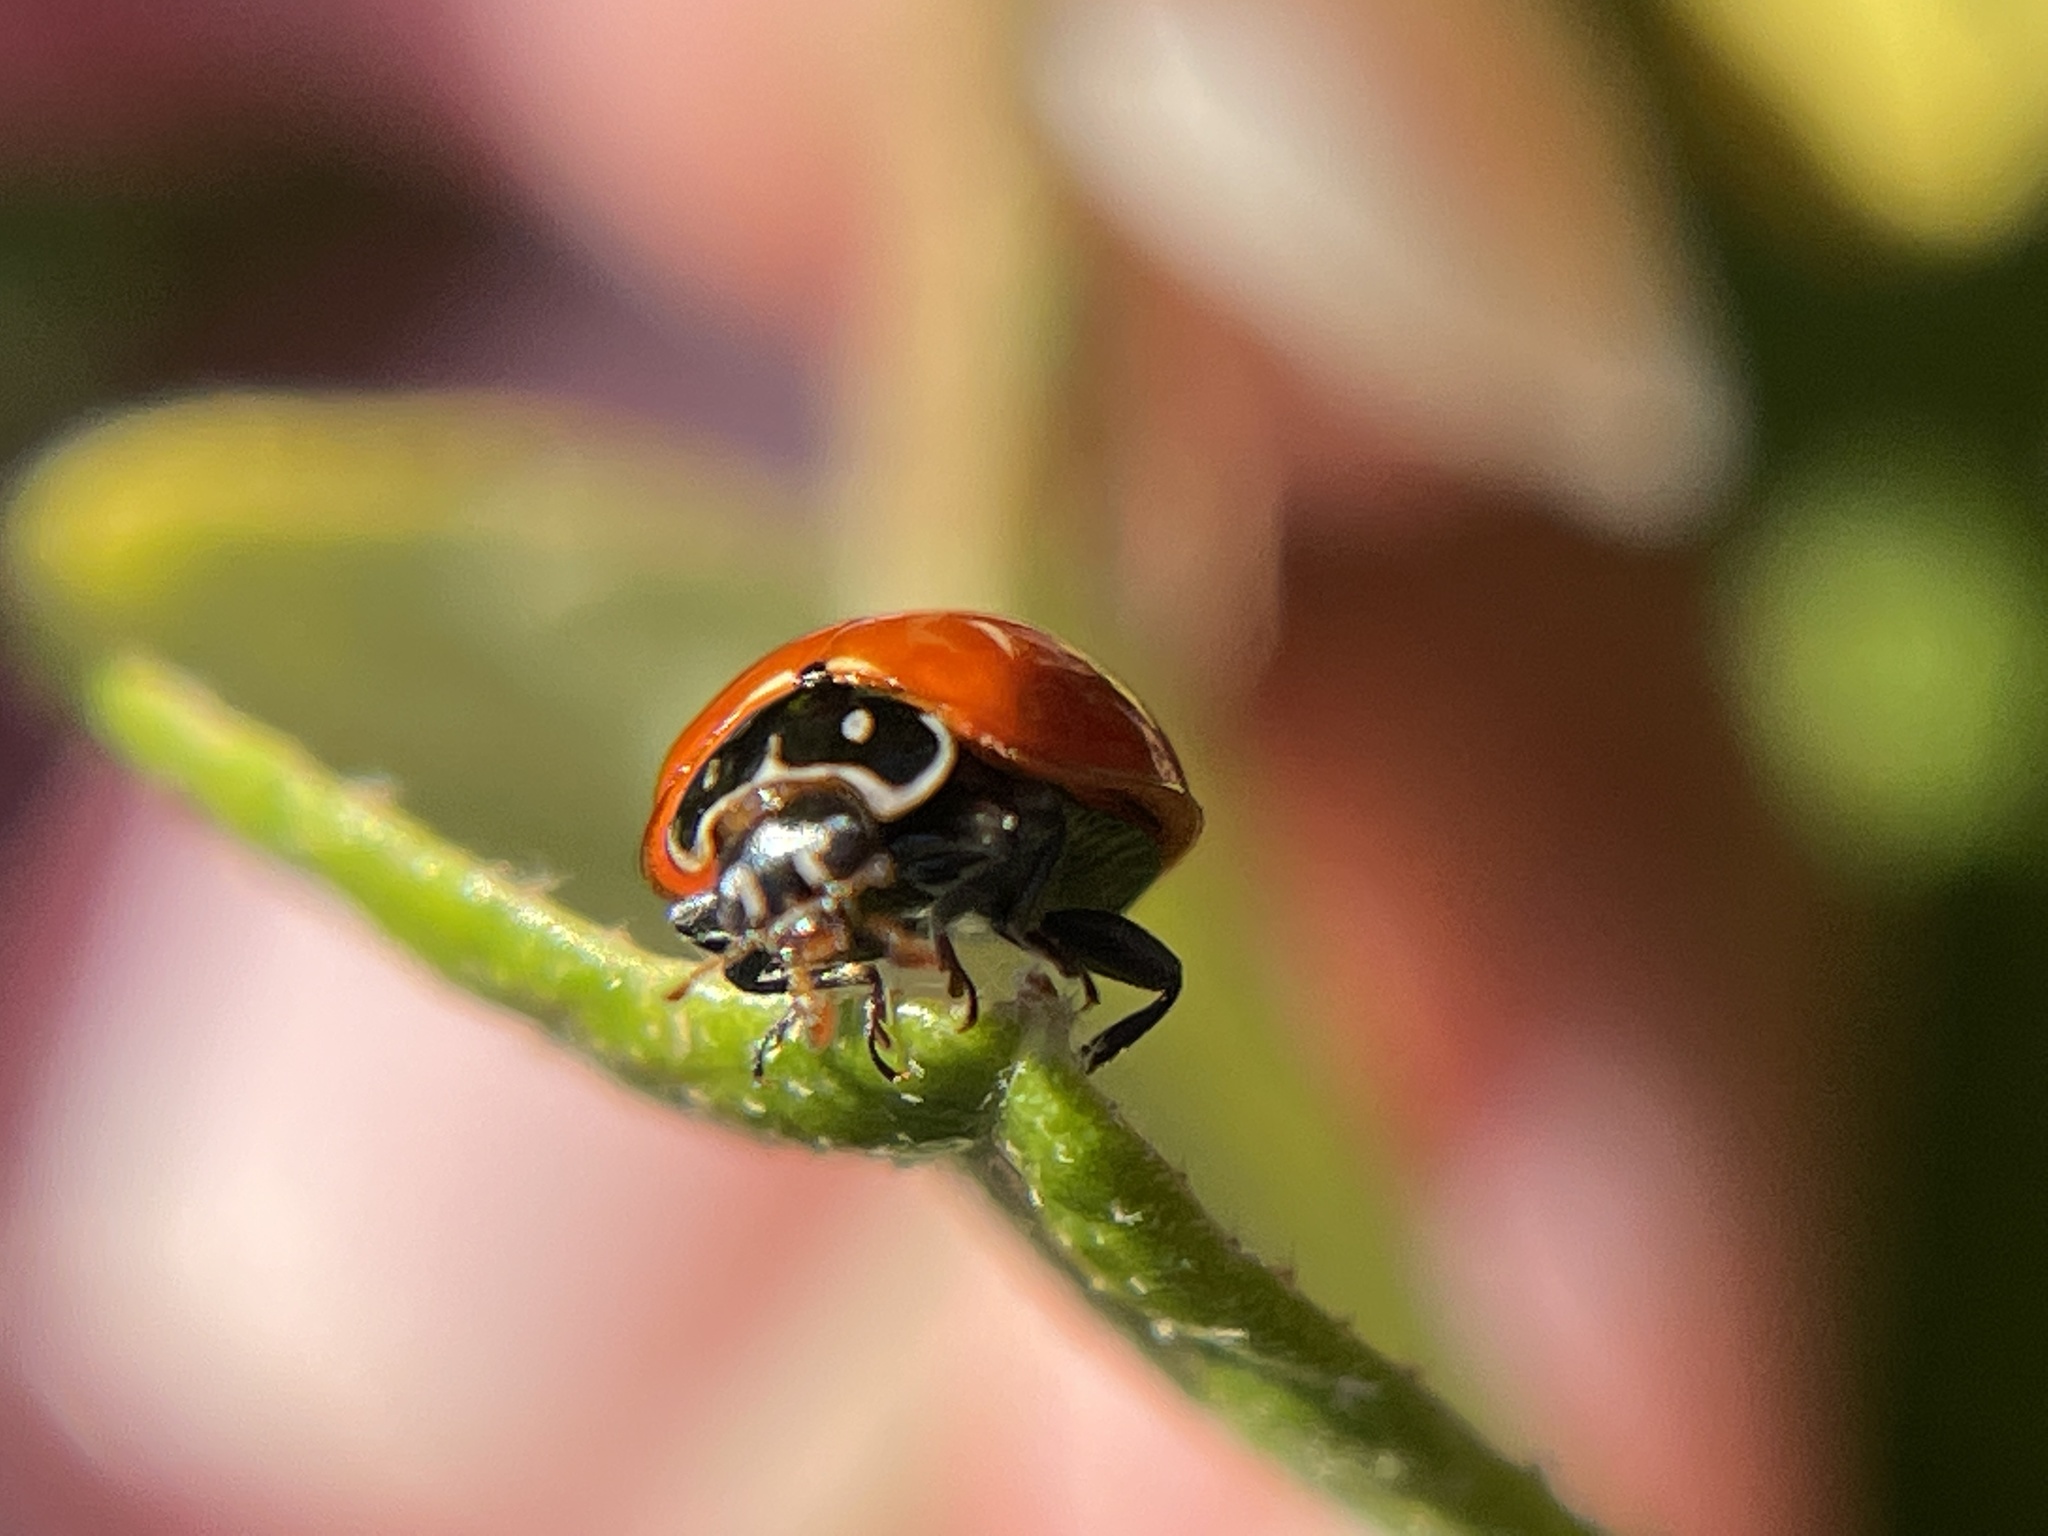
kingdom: Animalia
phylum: Arthropoda
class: Insecta
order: Coleoptera
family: Coccinellidae
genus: Cycloneda
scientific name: Cycloneda sanguinea
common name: Ladybird beetle
